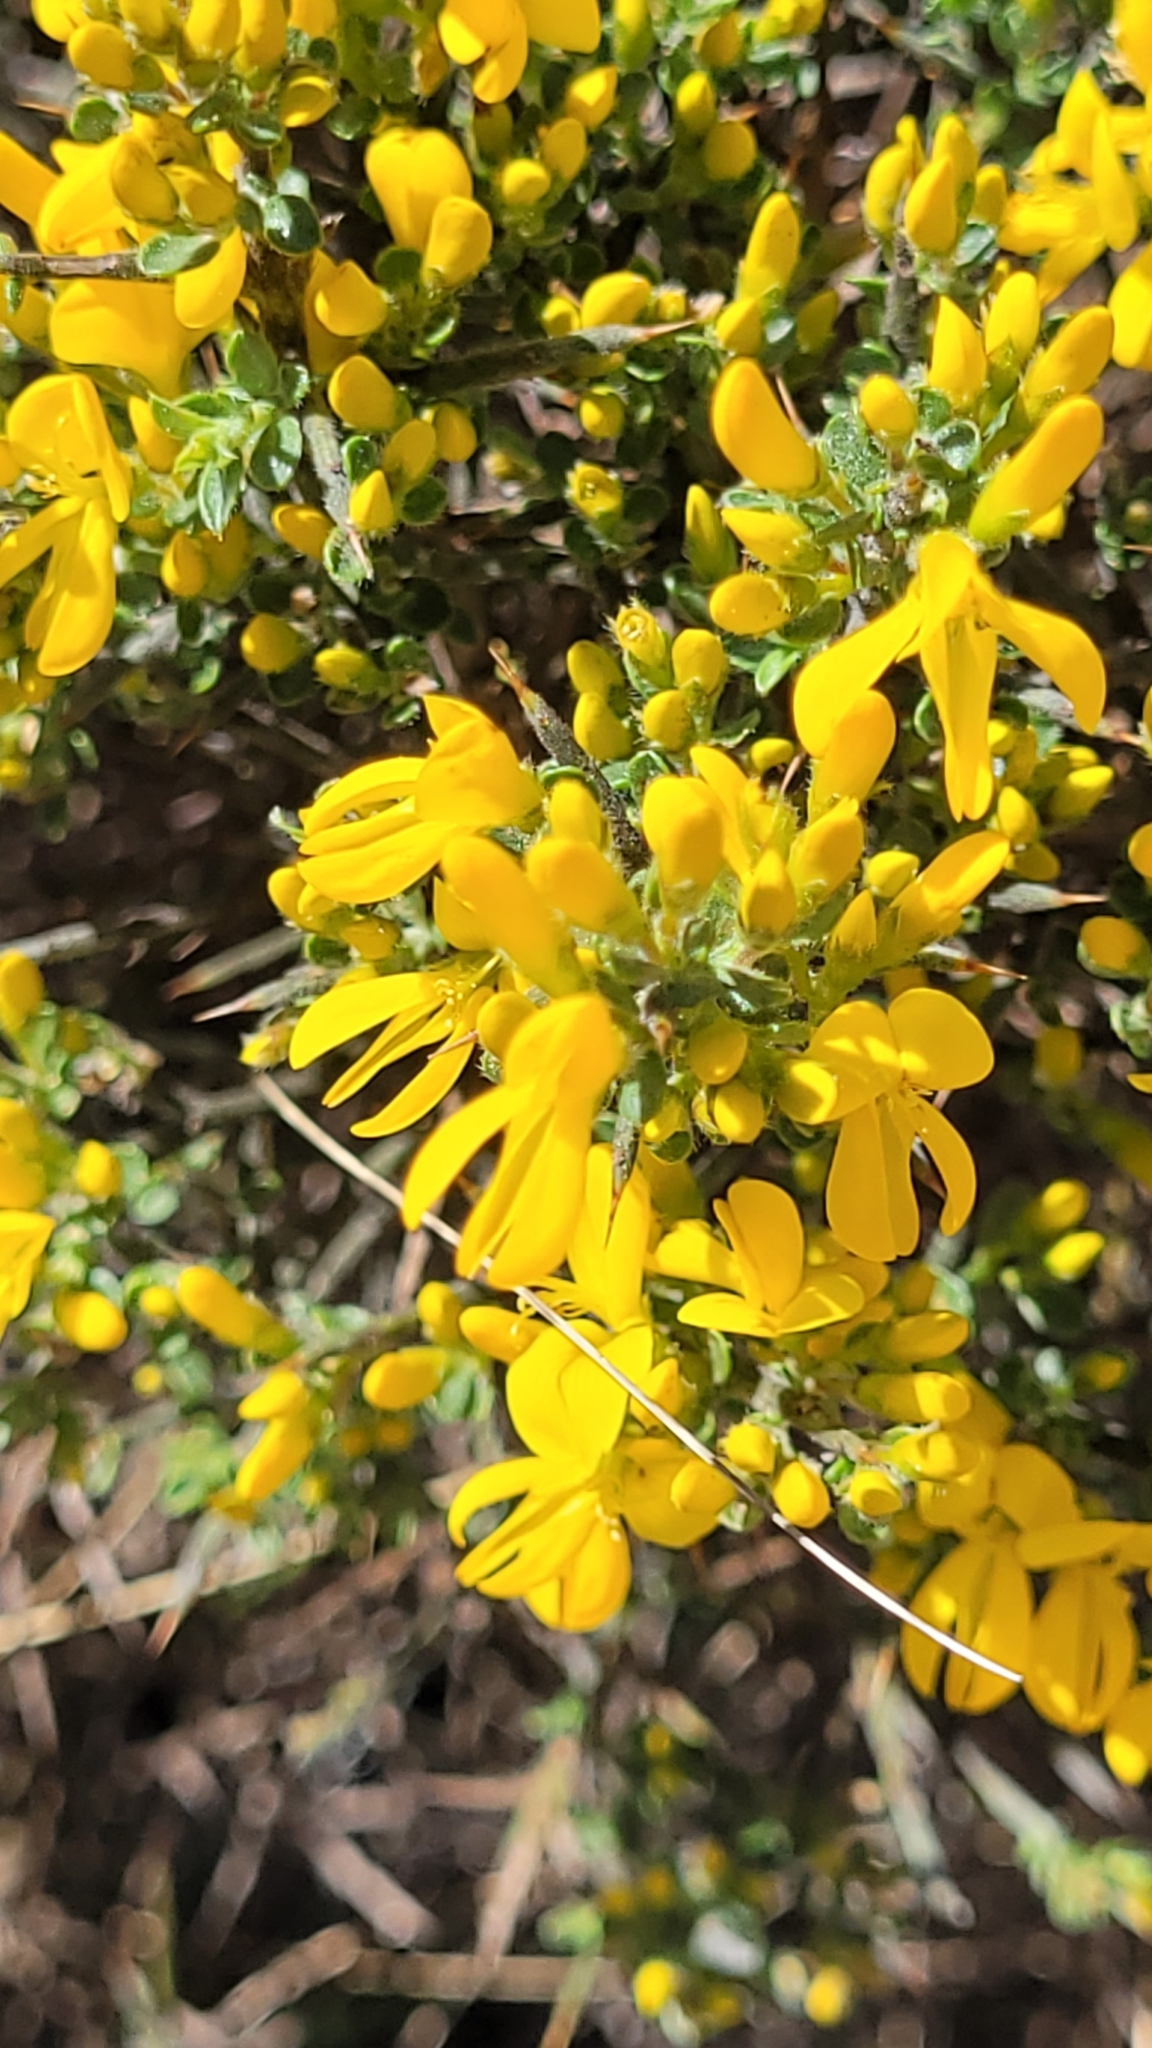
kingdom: Plantae
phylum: Tracheophyta
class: Magnoliopsida
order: Fabales
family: Fabaceae
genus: Genista
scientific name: Genista scorpius
